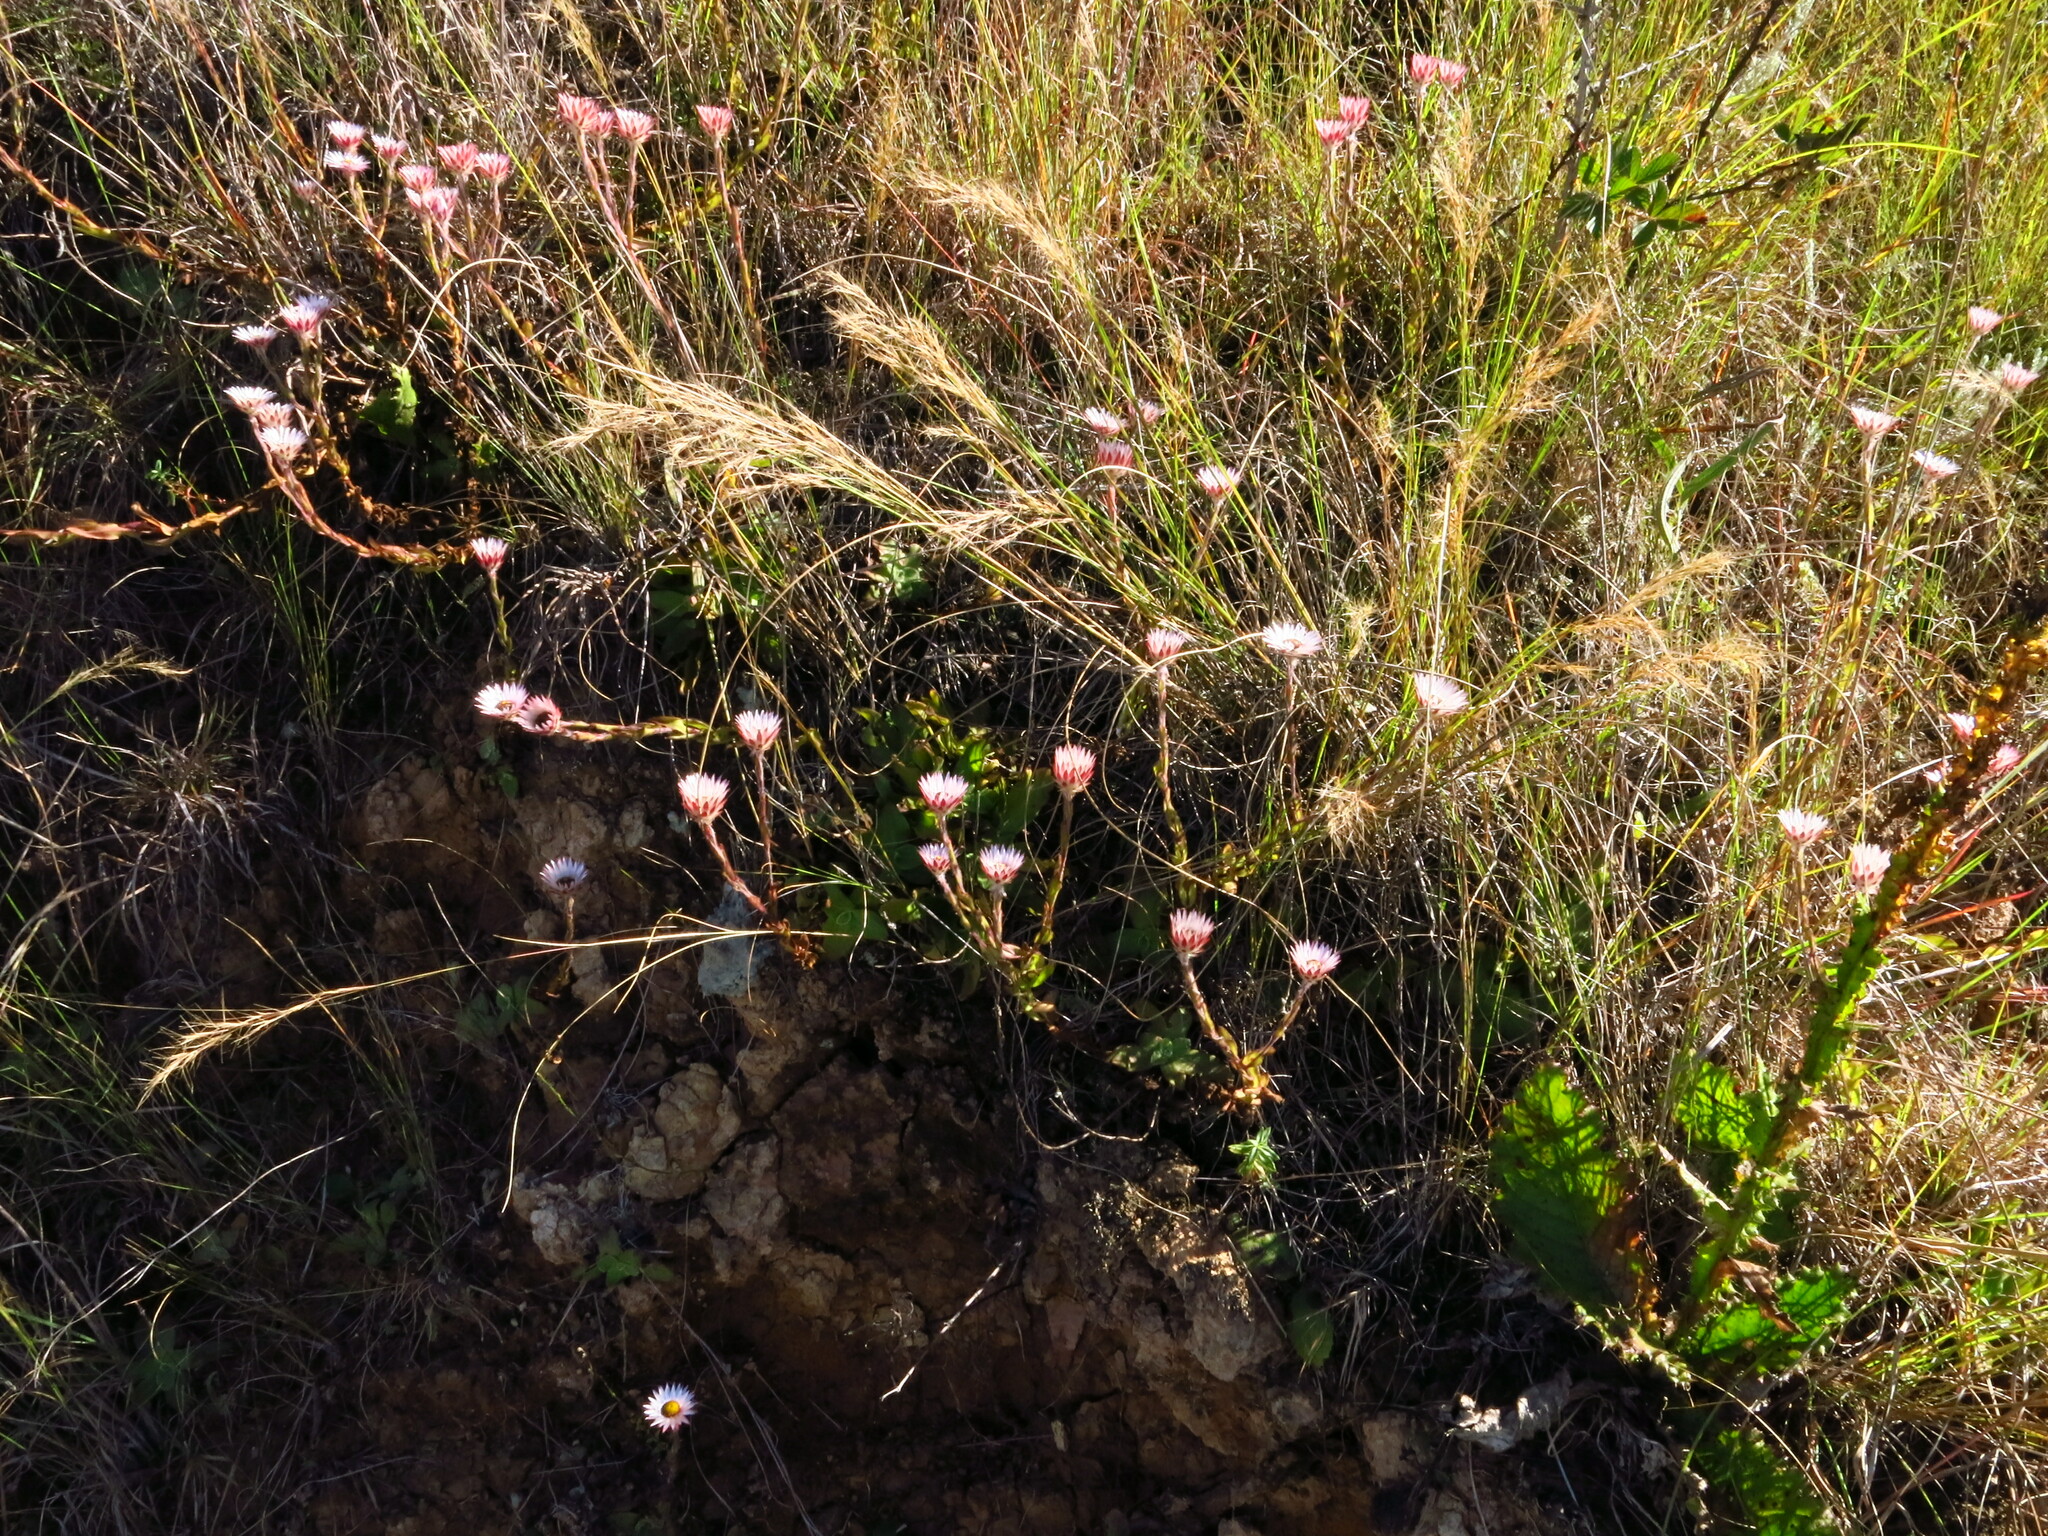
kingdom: Plantae
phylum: Tracheophyta
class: Magnoliopsida
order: Asterales
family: Asteraceae
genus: Helichrysum
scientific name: Helichrysum adenocarpum
